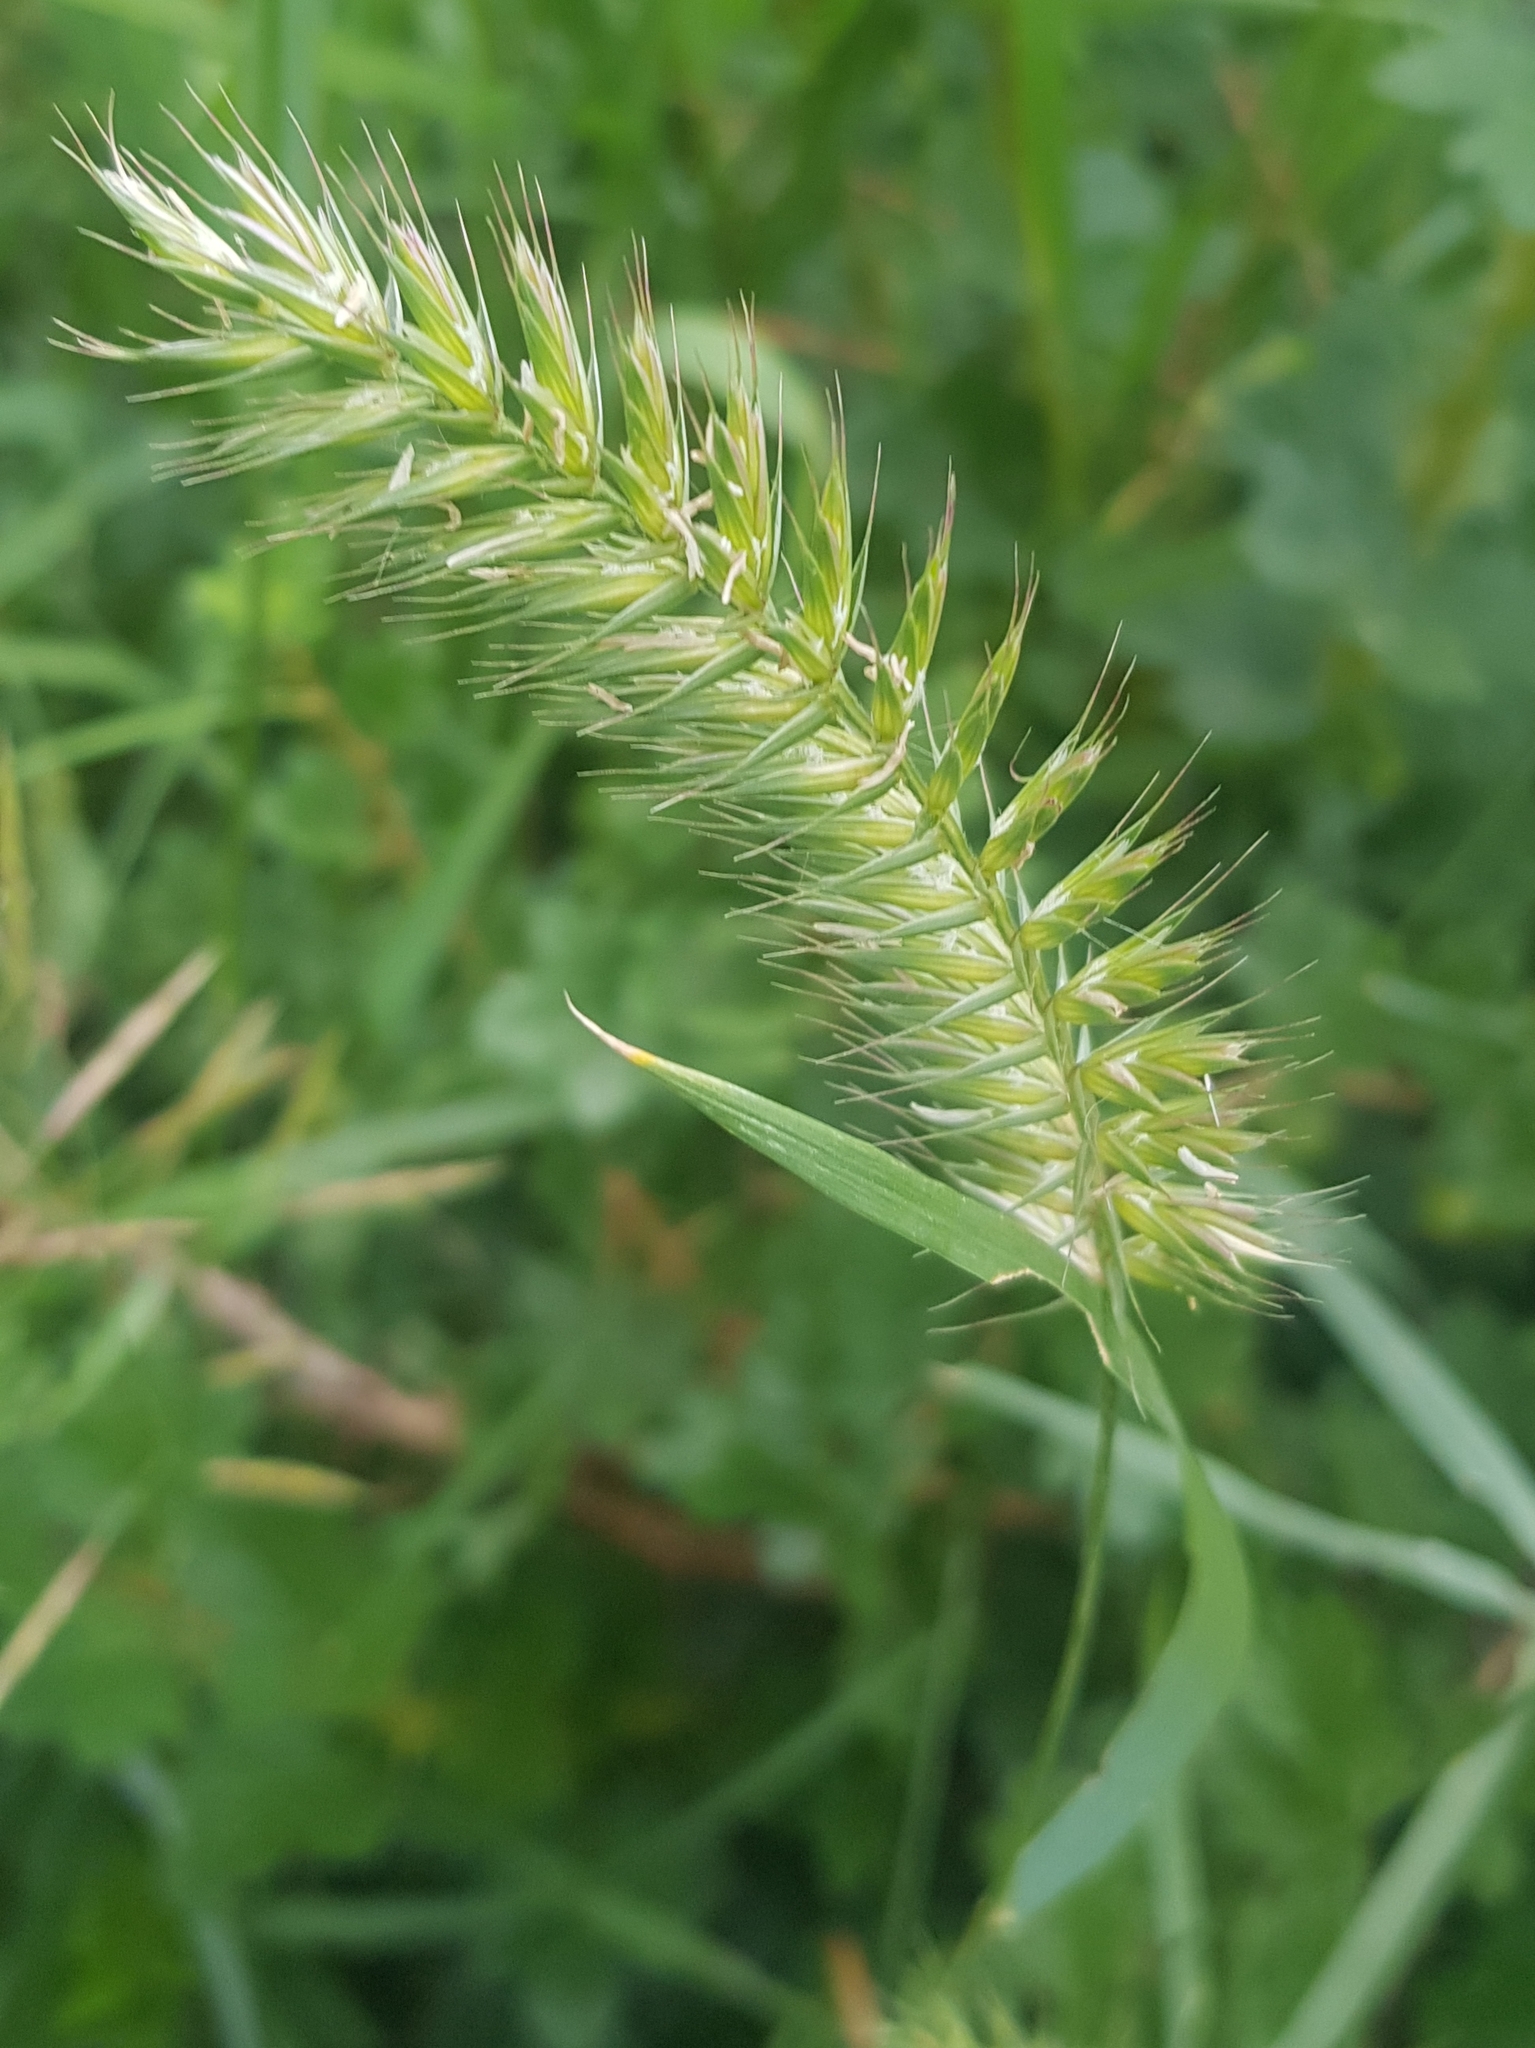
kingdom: Plantae
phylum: Tracheophyta
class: Liliopsida
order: Poales
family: Poaceae
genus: Agropyron
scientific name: Agropyron cristatum
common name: Crested wheatgrass
